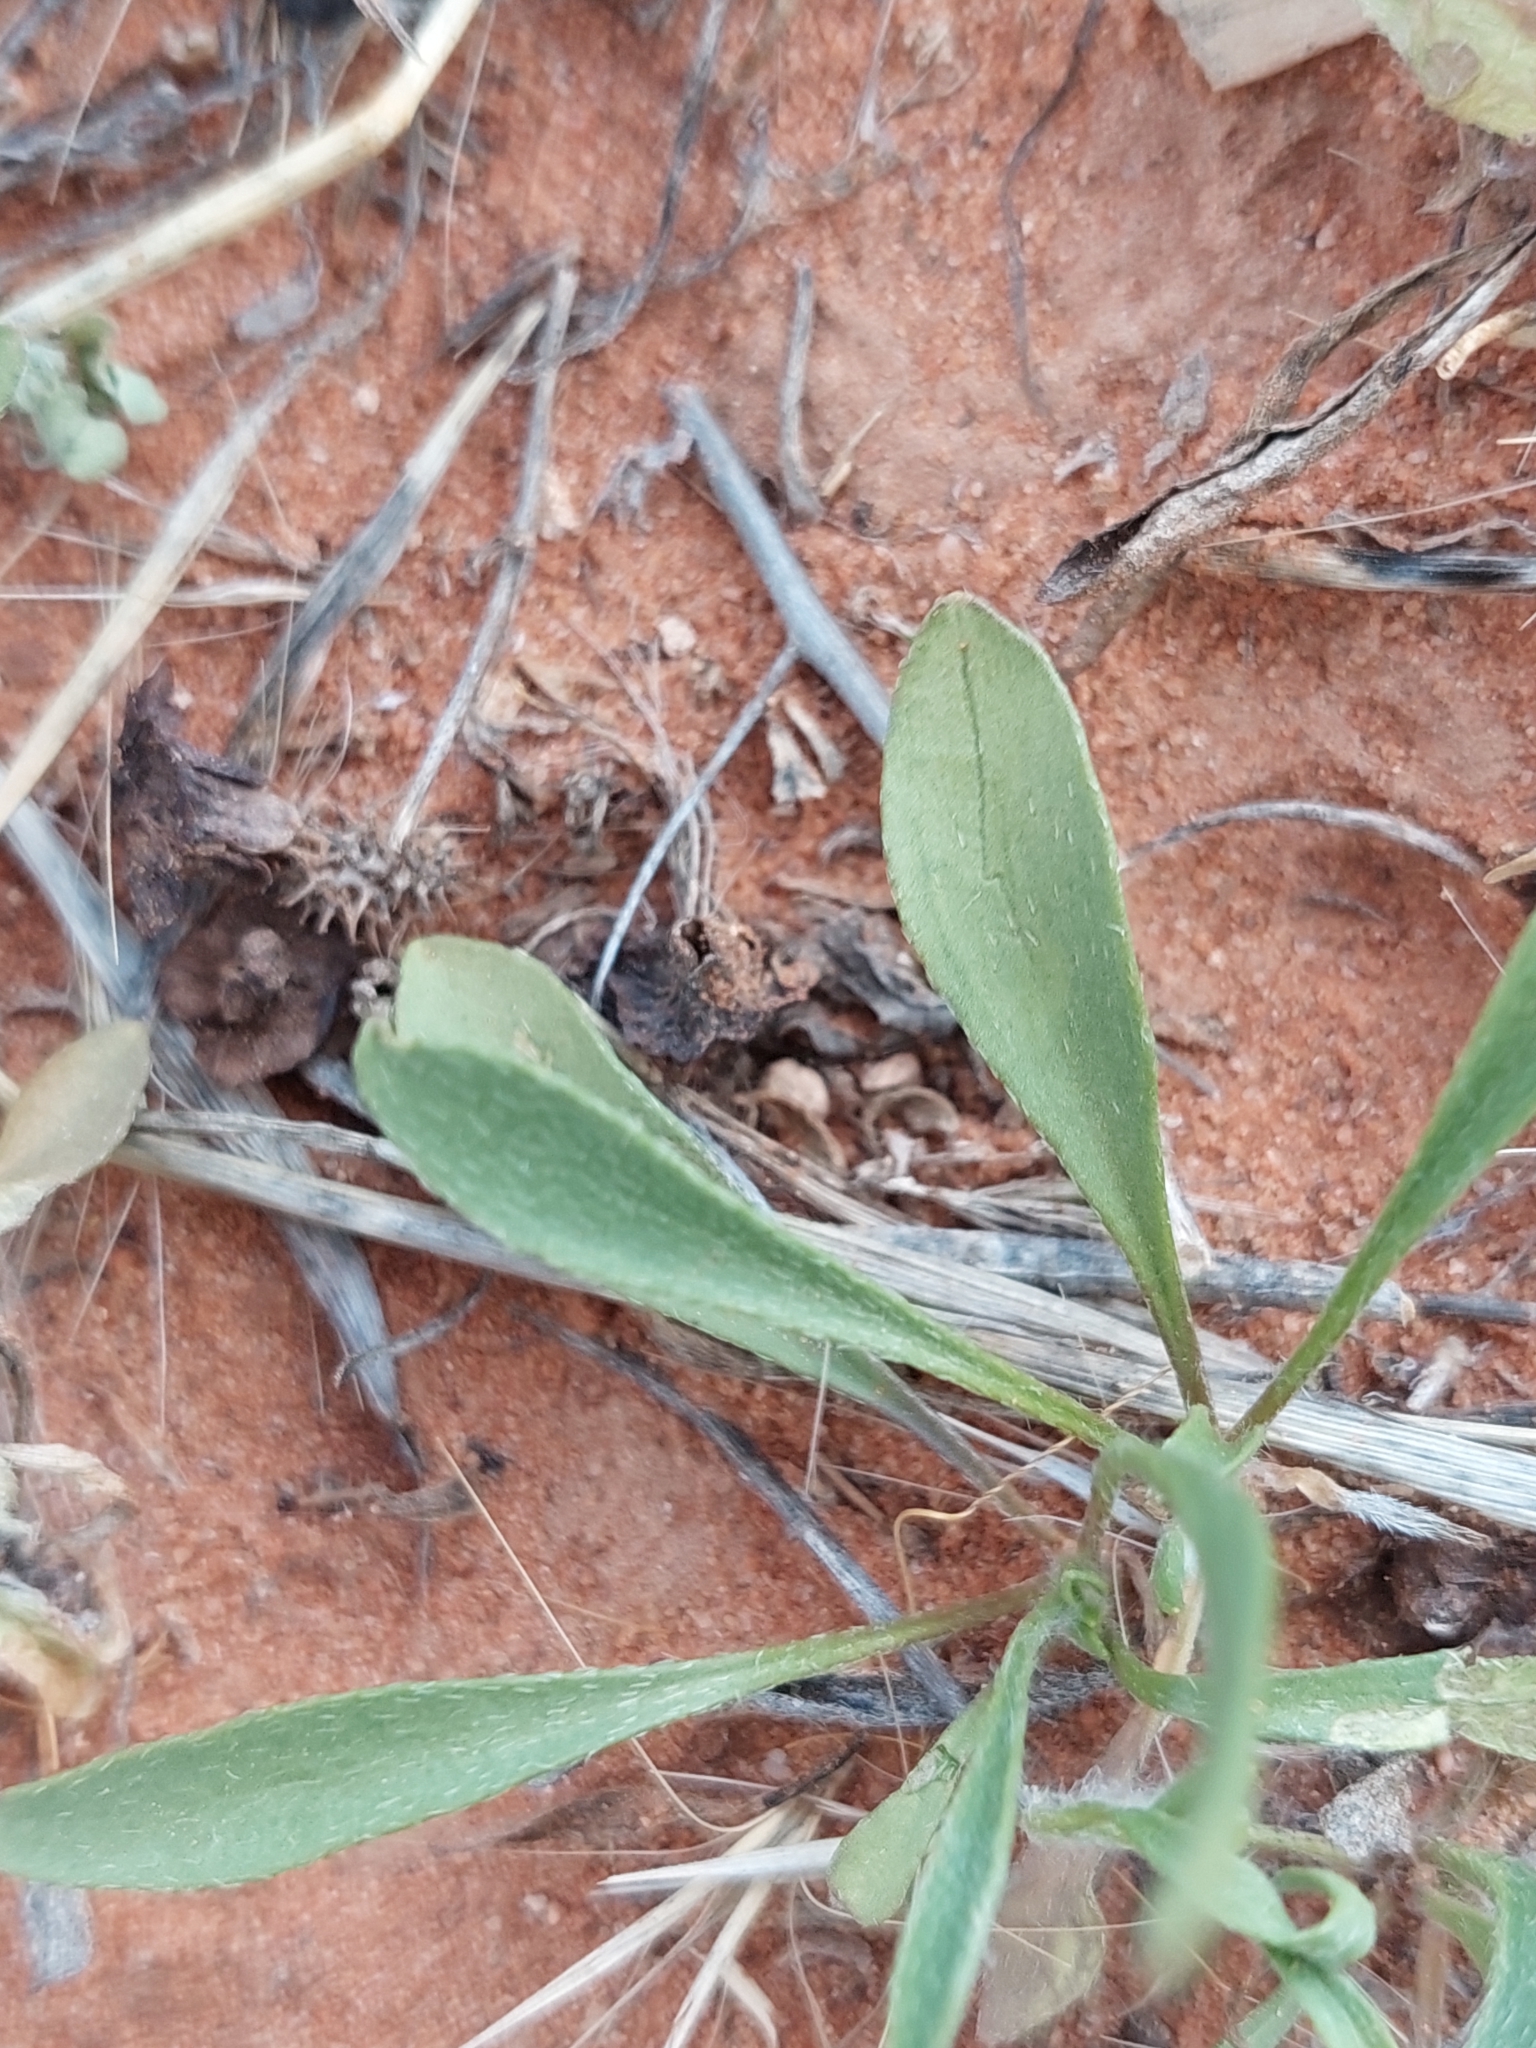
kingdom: Plantae
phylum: Tracheophyta
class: Magnoliopsida
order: Asterales
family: Goodeniaceae
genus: Goodenia
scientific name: Goodenia fascicularis
